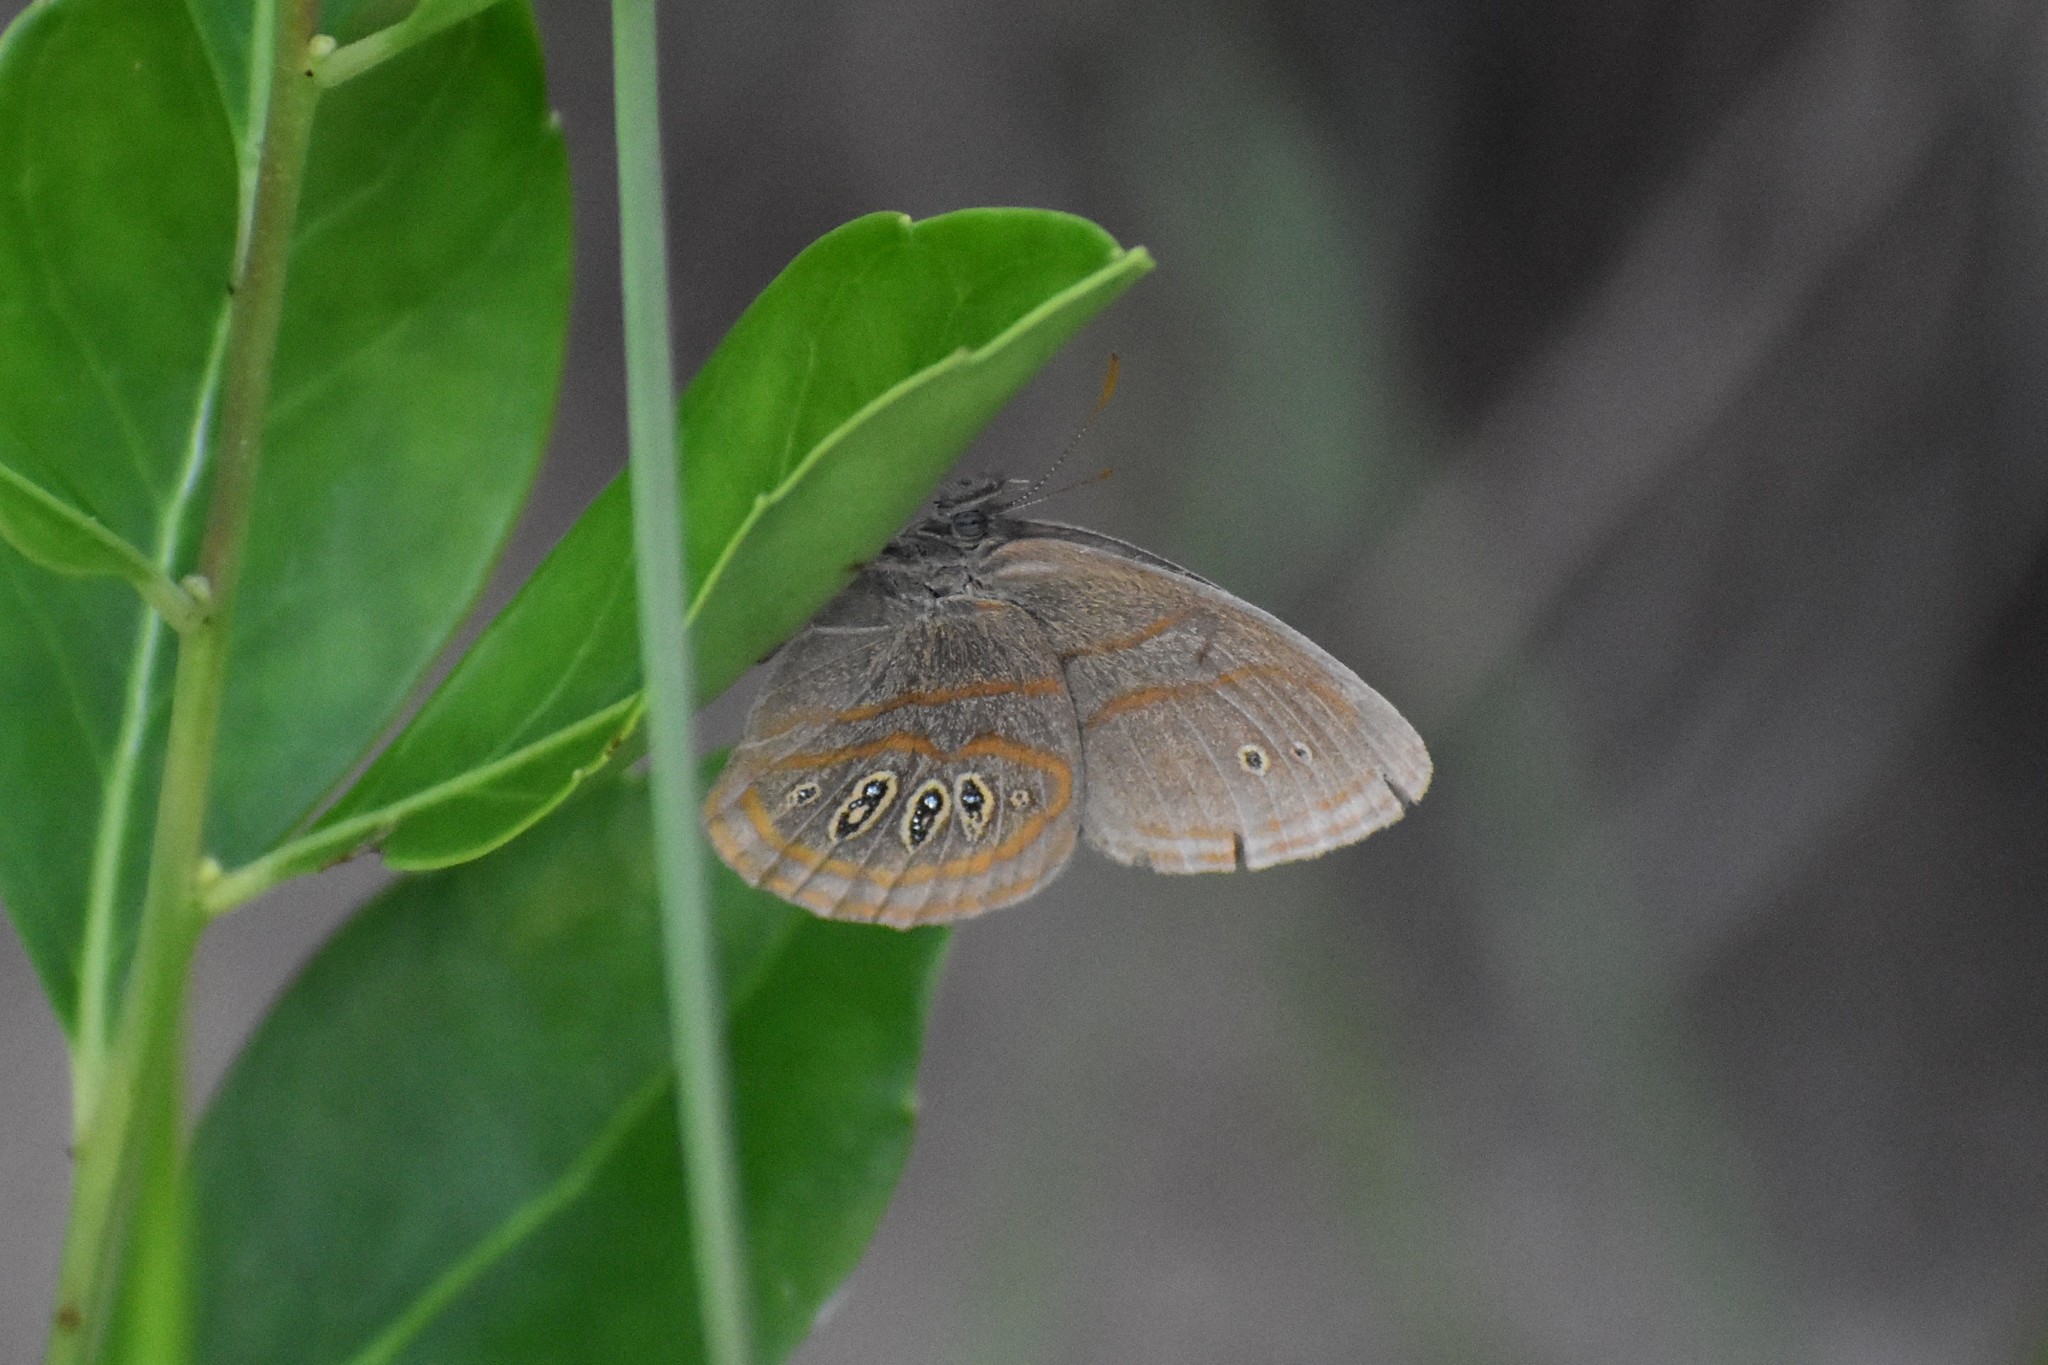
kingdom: Animalia
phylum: Arthropoda
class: Insecta
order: Lepidoptera
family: Nymphalidae
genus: Euptychia
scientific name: Euptychia phocion
